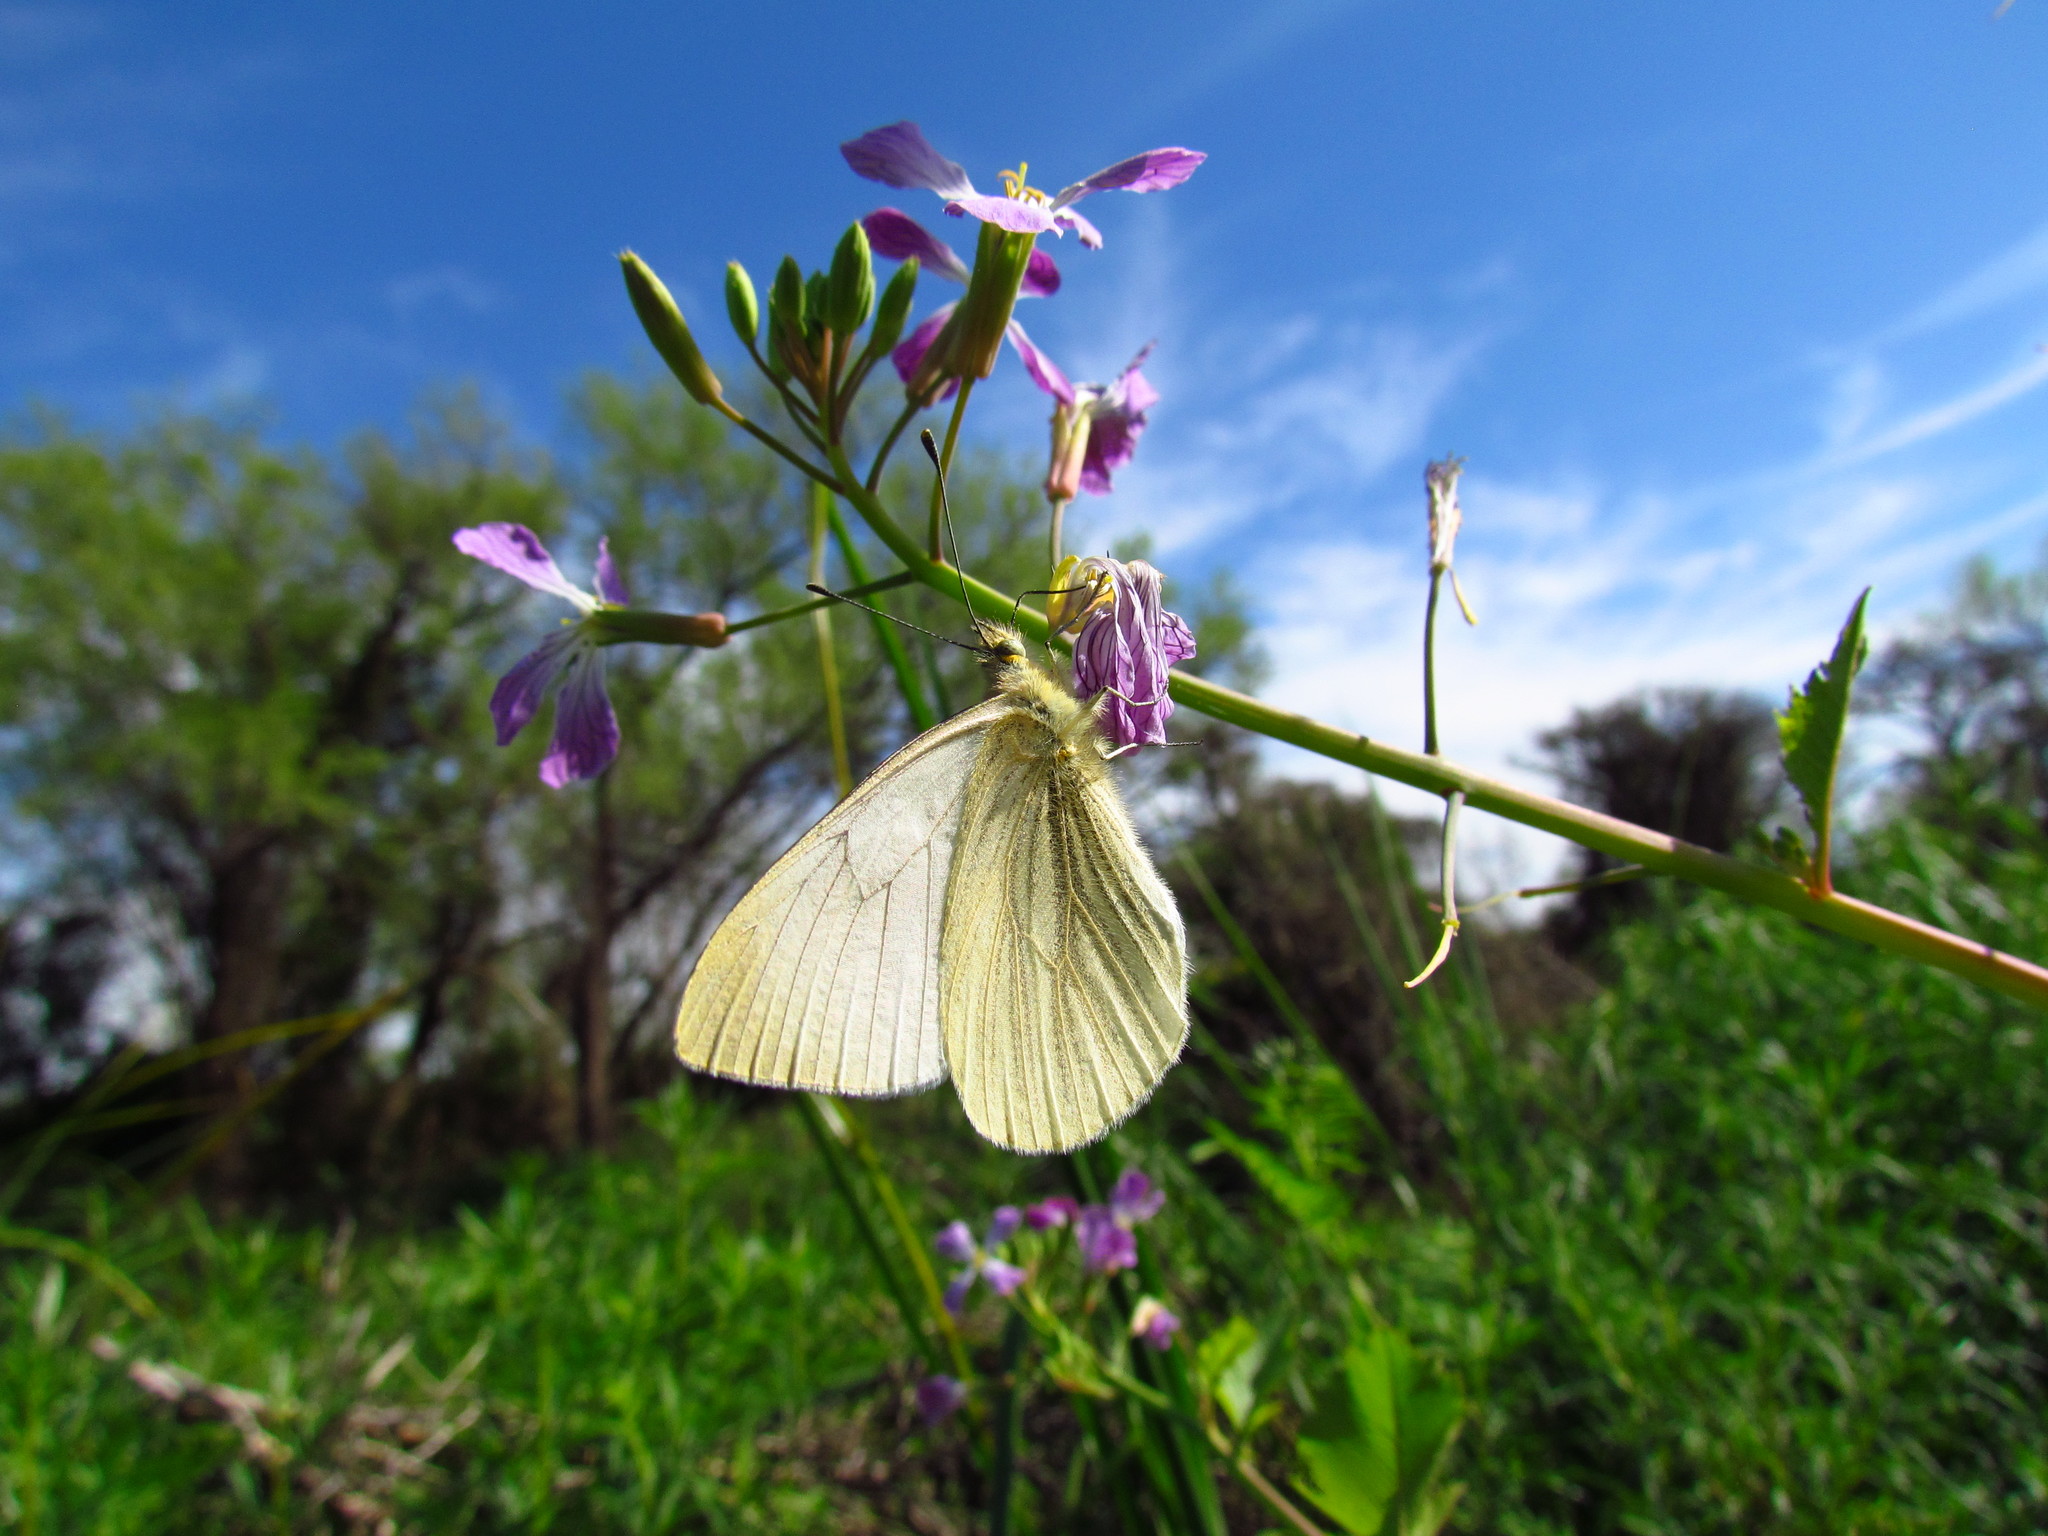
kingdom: Animalia
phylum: Arthropoda
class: Insecta
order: Lepidoptera
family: Pieridae
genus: Theochila
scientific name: Theochila maenacte
